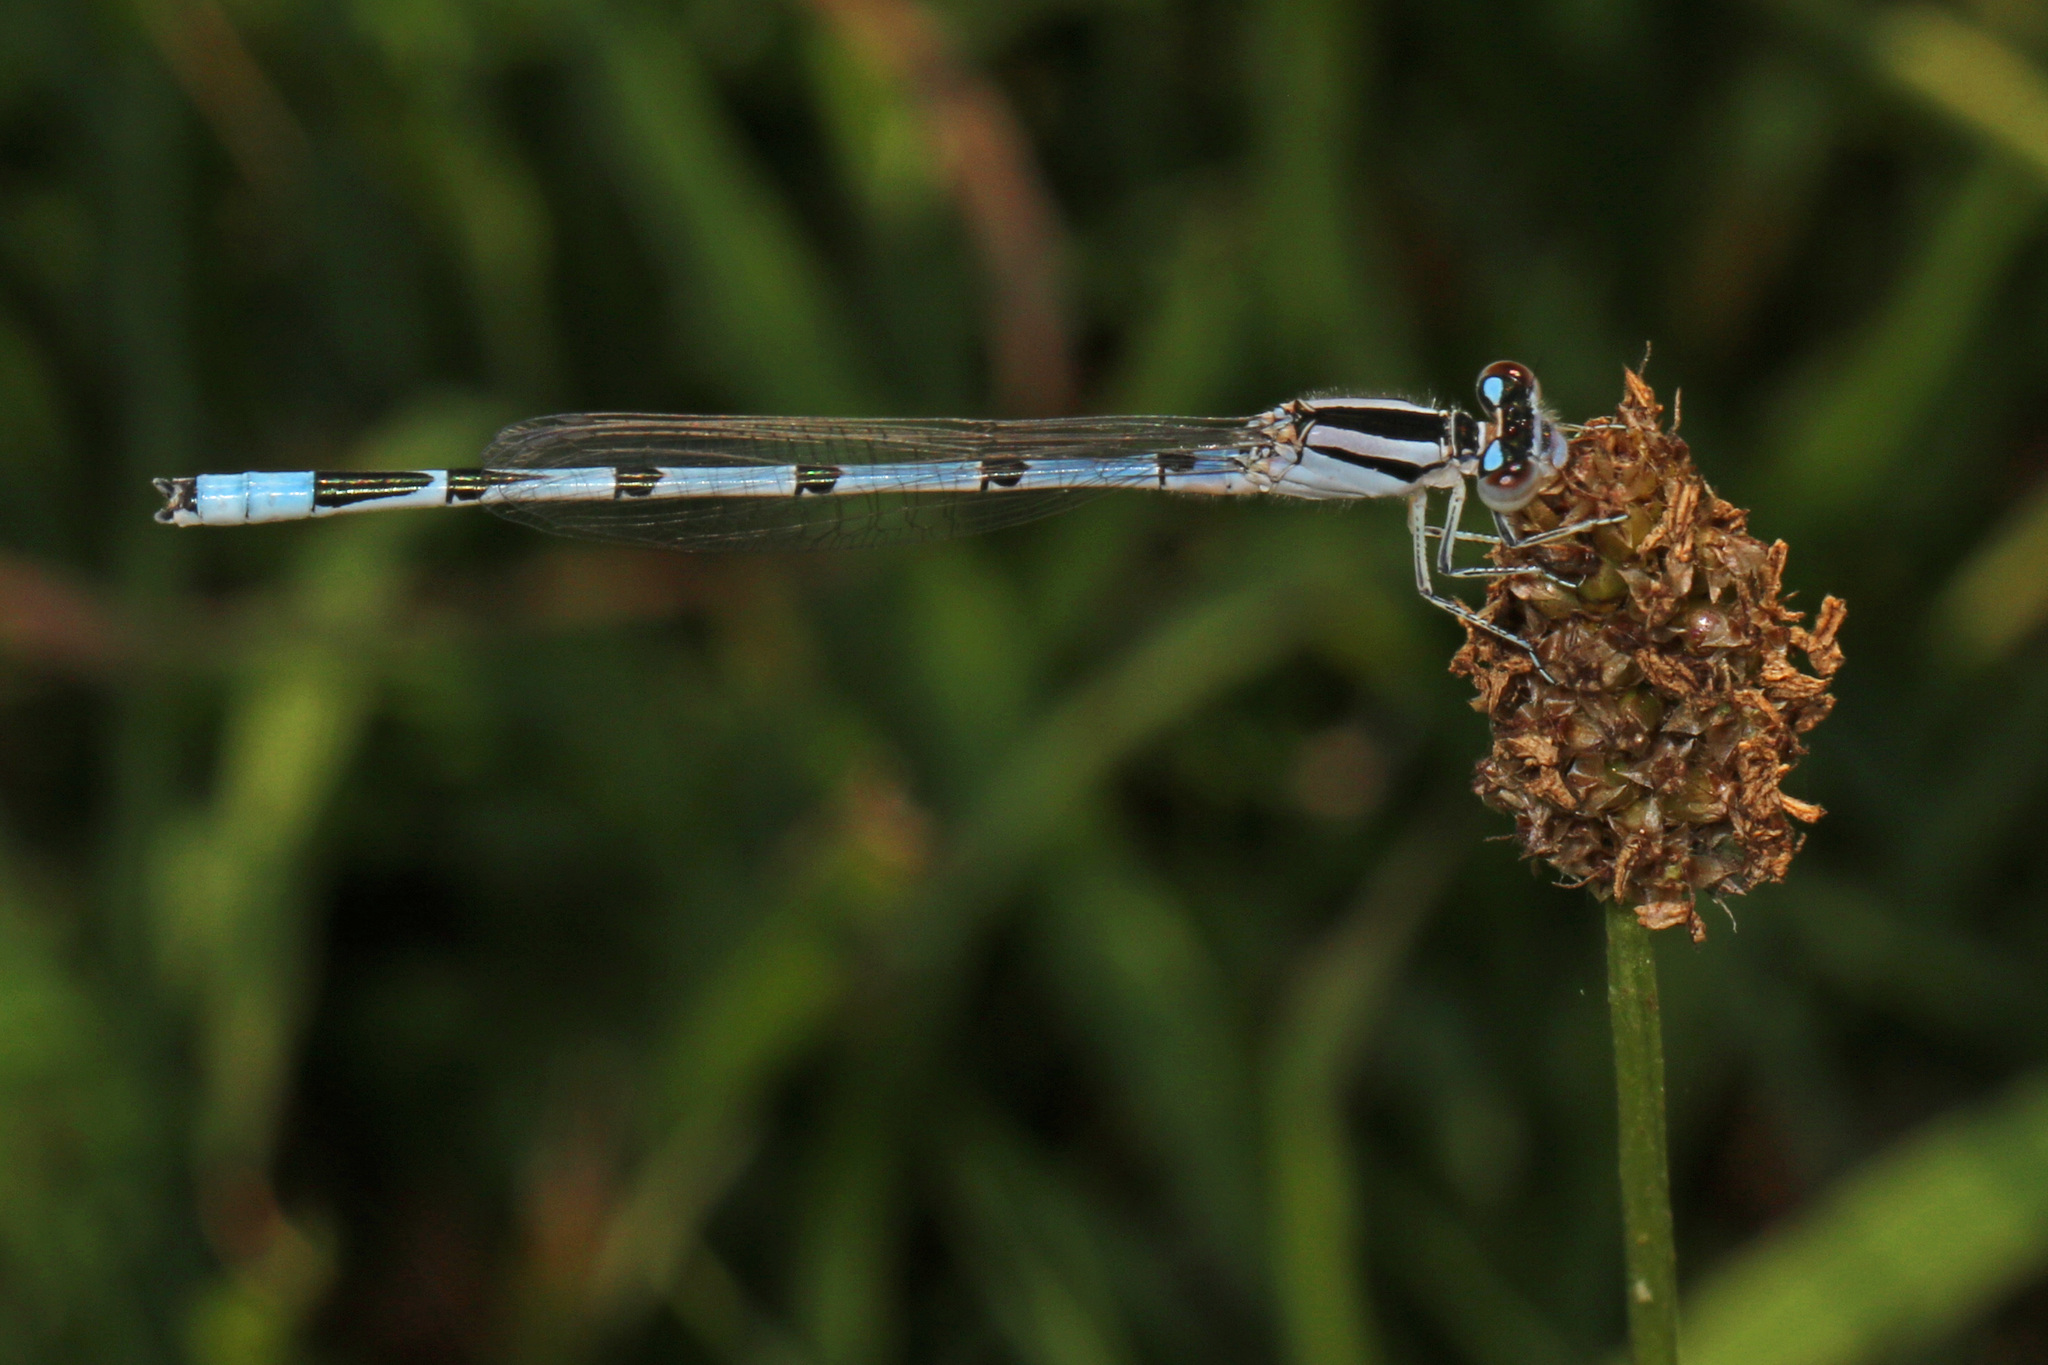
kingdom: Animalia
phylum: Arthropoda
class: Insecta
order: Odonata
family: Coenagrionidae
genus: Enallagma
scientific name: Enallagma civile
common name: Damselfly
